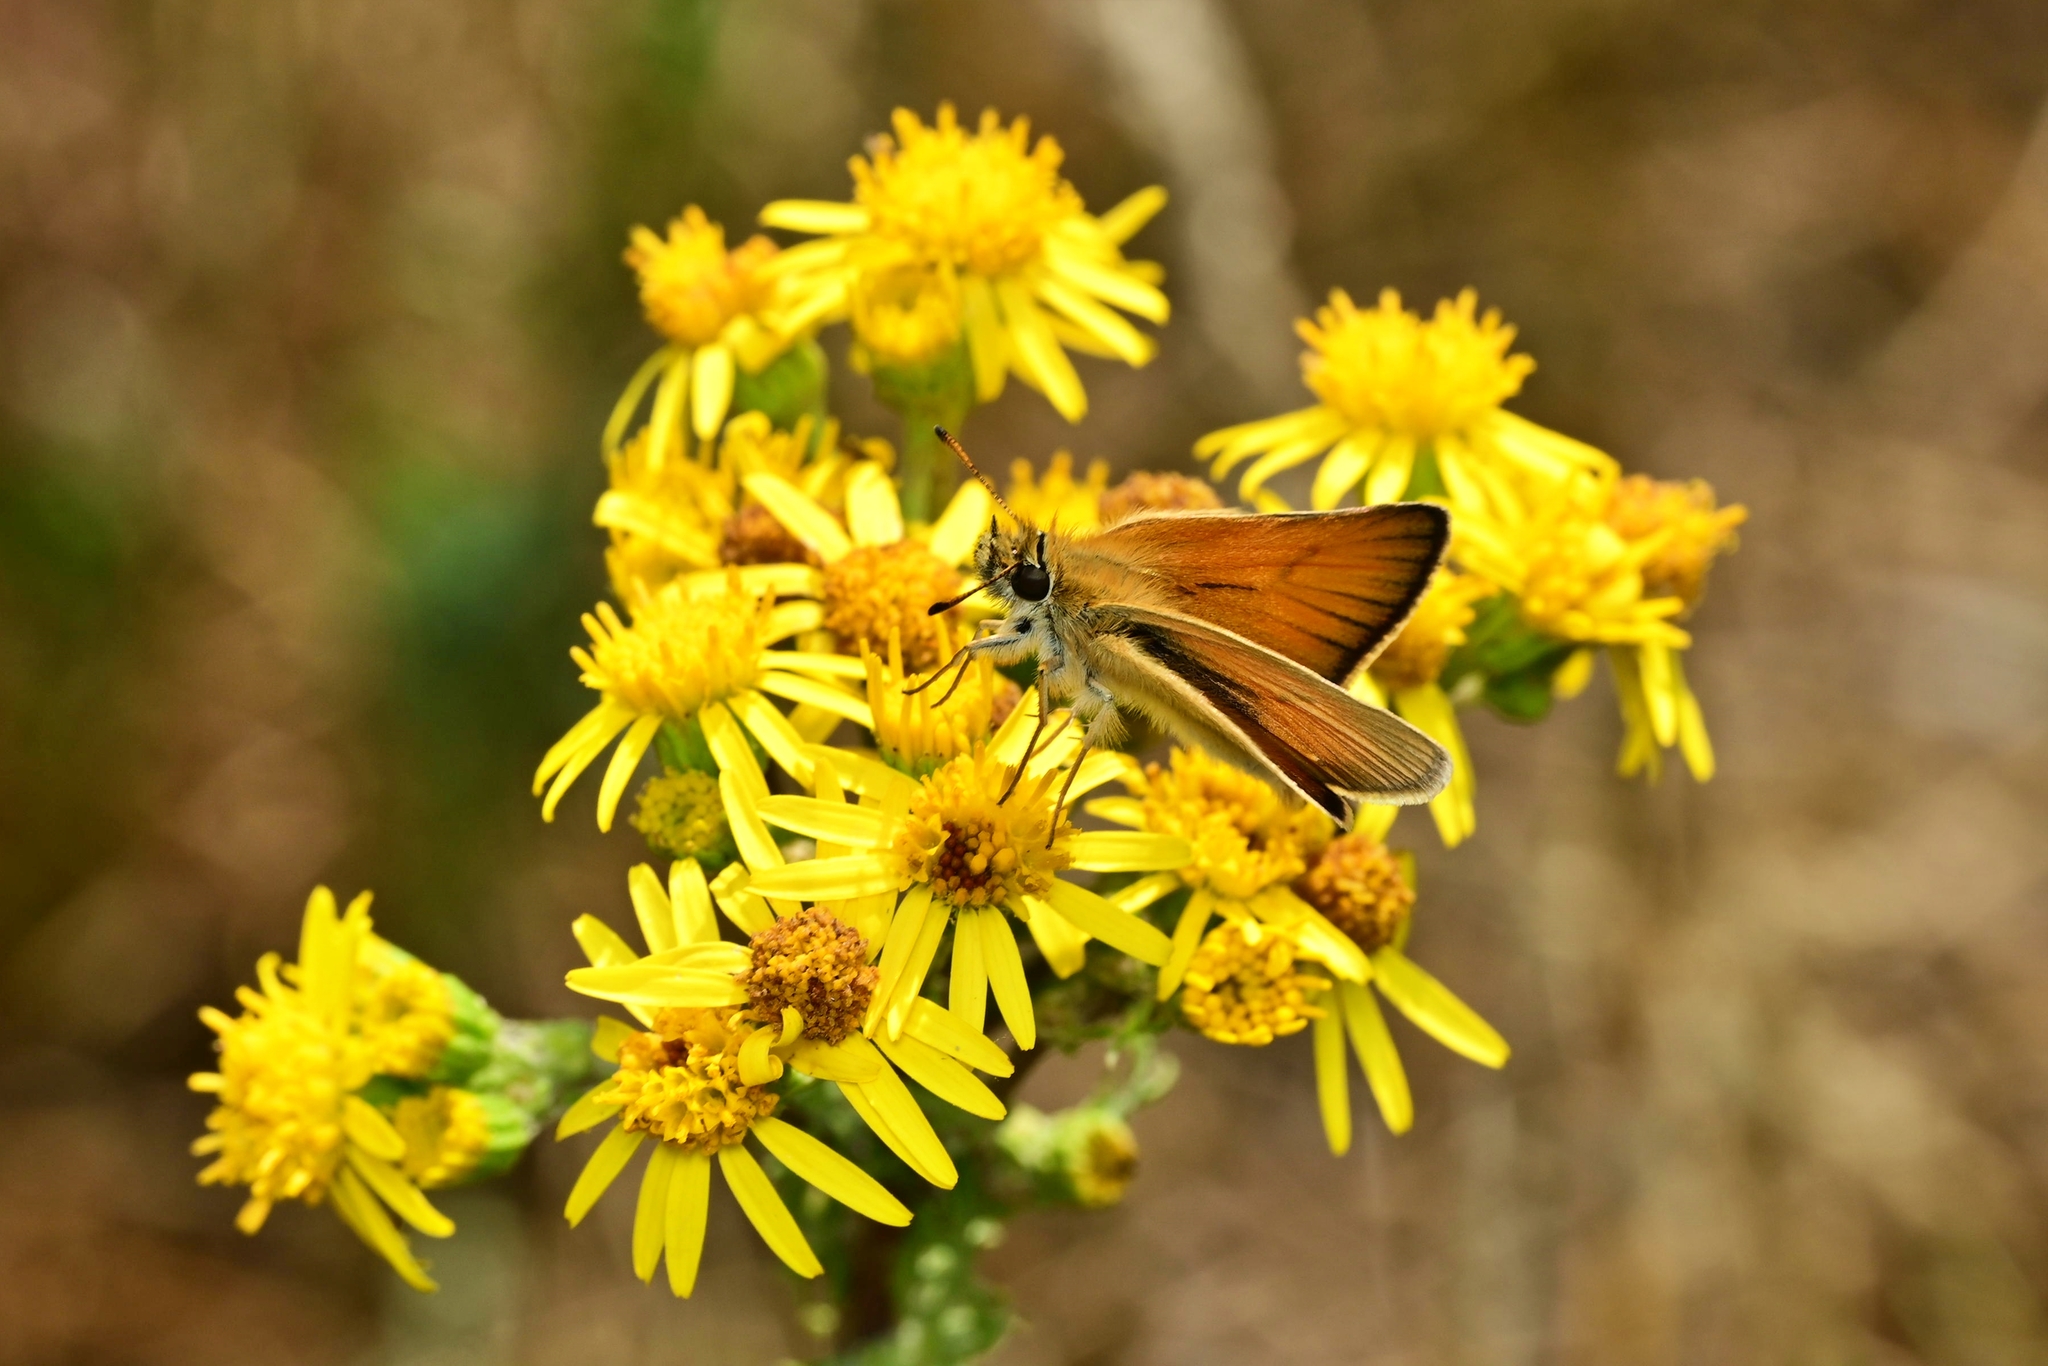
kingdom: Animalia
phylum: Arthropoda
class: Insecta
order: Lepidoptera
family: Hesperiidae
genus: Thymelicus
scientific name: Thymelicus lineola
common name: Essex skipper
